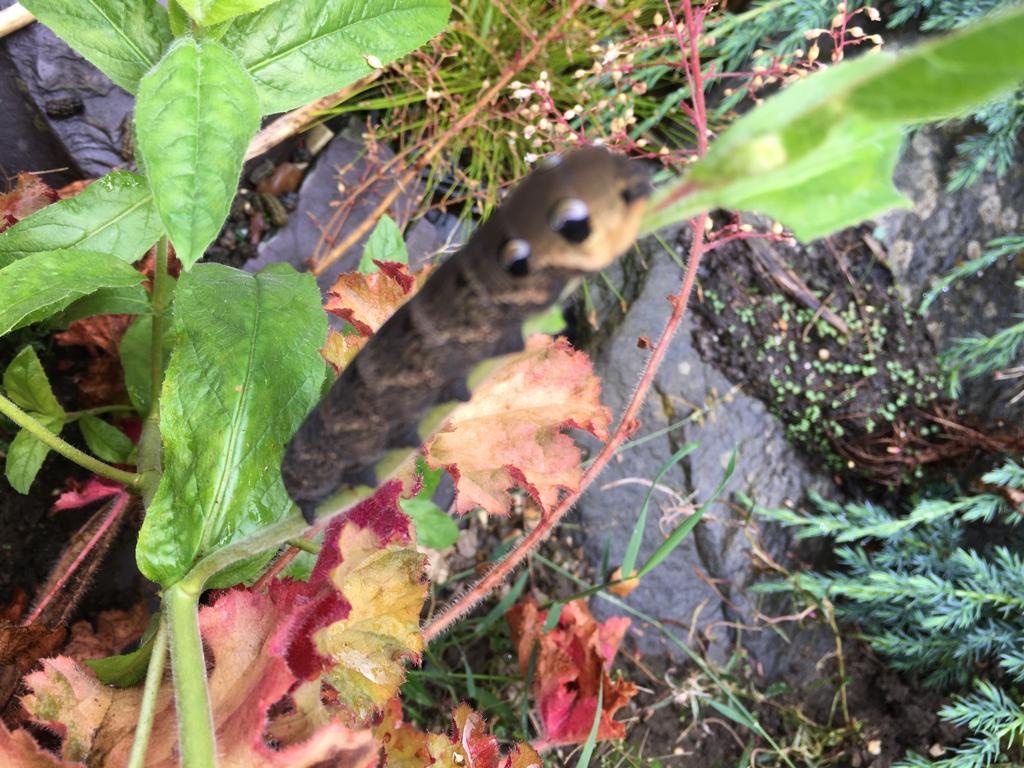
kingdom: Animalia
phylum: Arthropoda
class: Insecta
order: Lepidoptera
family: Sphingidae
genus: Deilephila
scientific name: Deilephila elpenor
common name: Elephant hawk-moth
